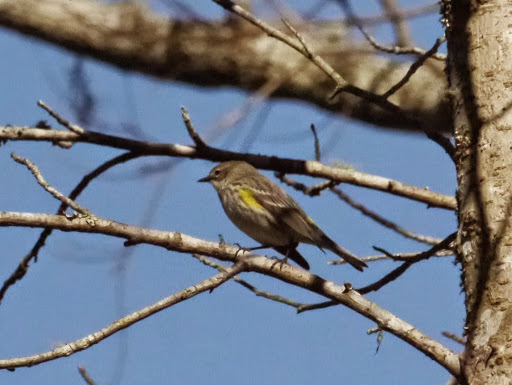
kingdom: Animalia
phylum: Chordata
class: Aves
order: Passeriformes
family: Parulidae
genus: Setophaga
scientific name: Setophaga coronata
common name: Myrtle warbler
